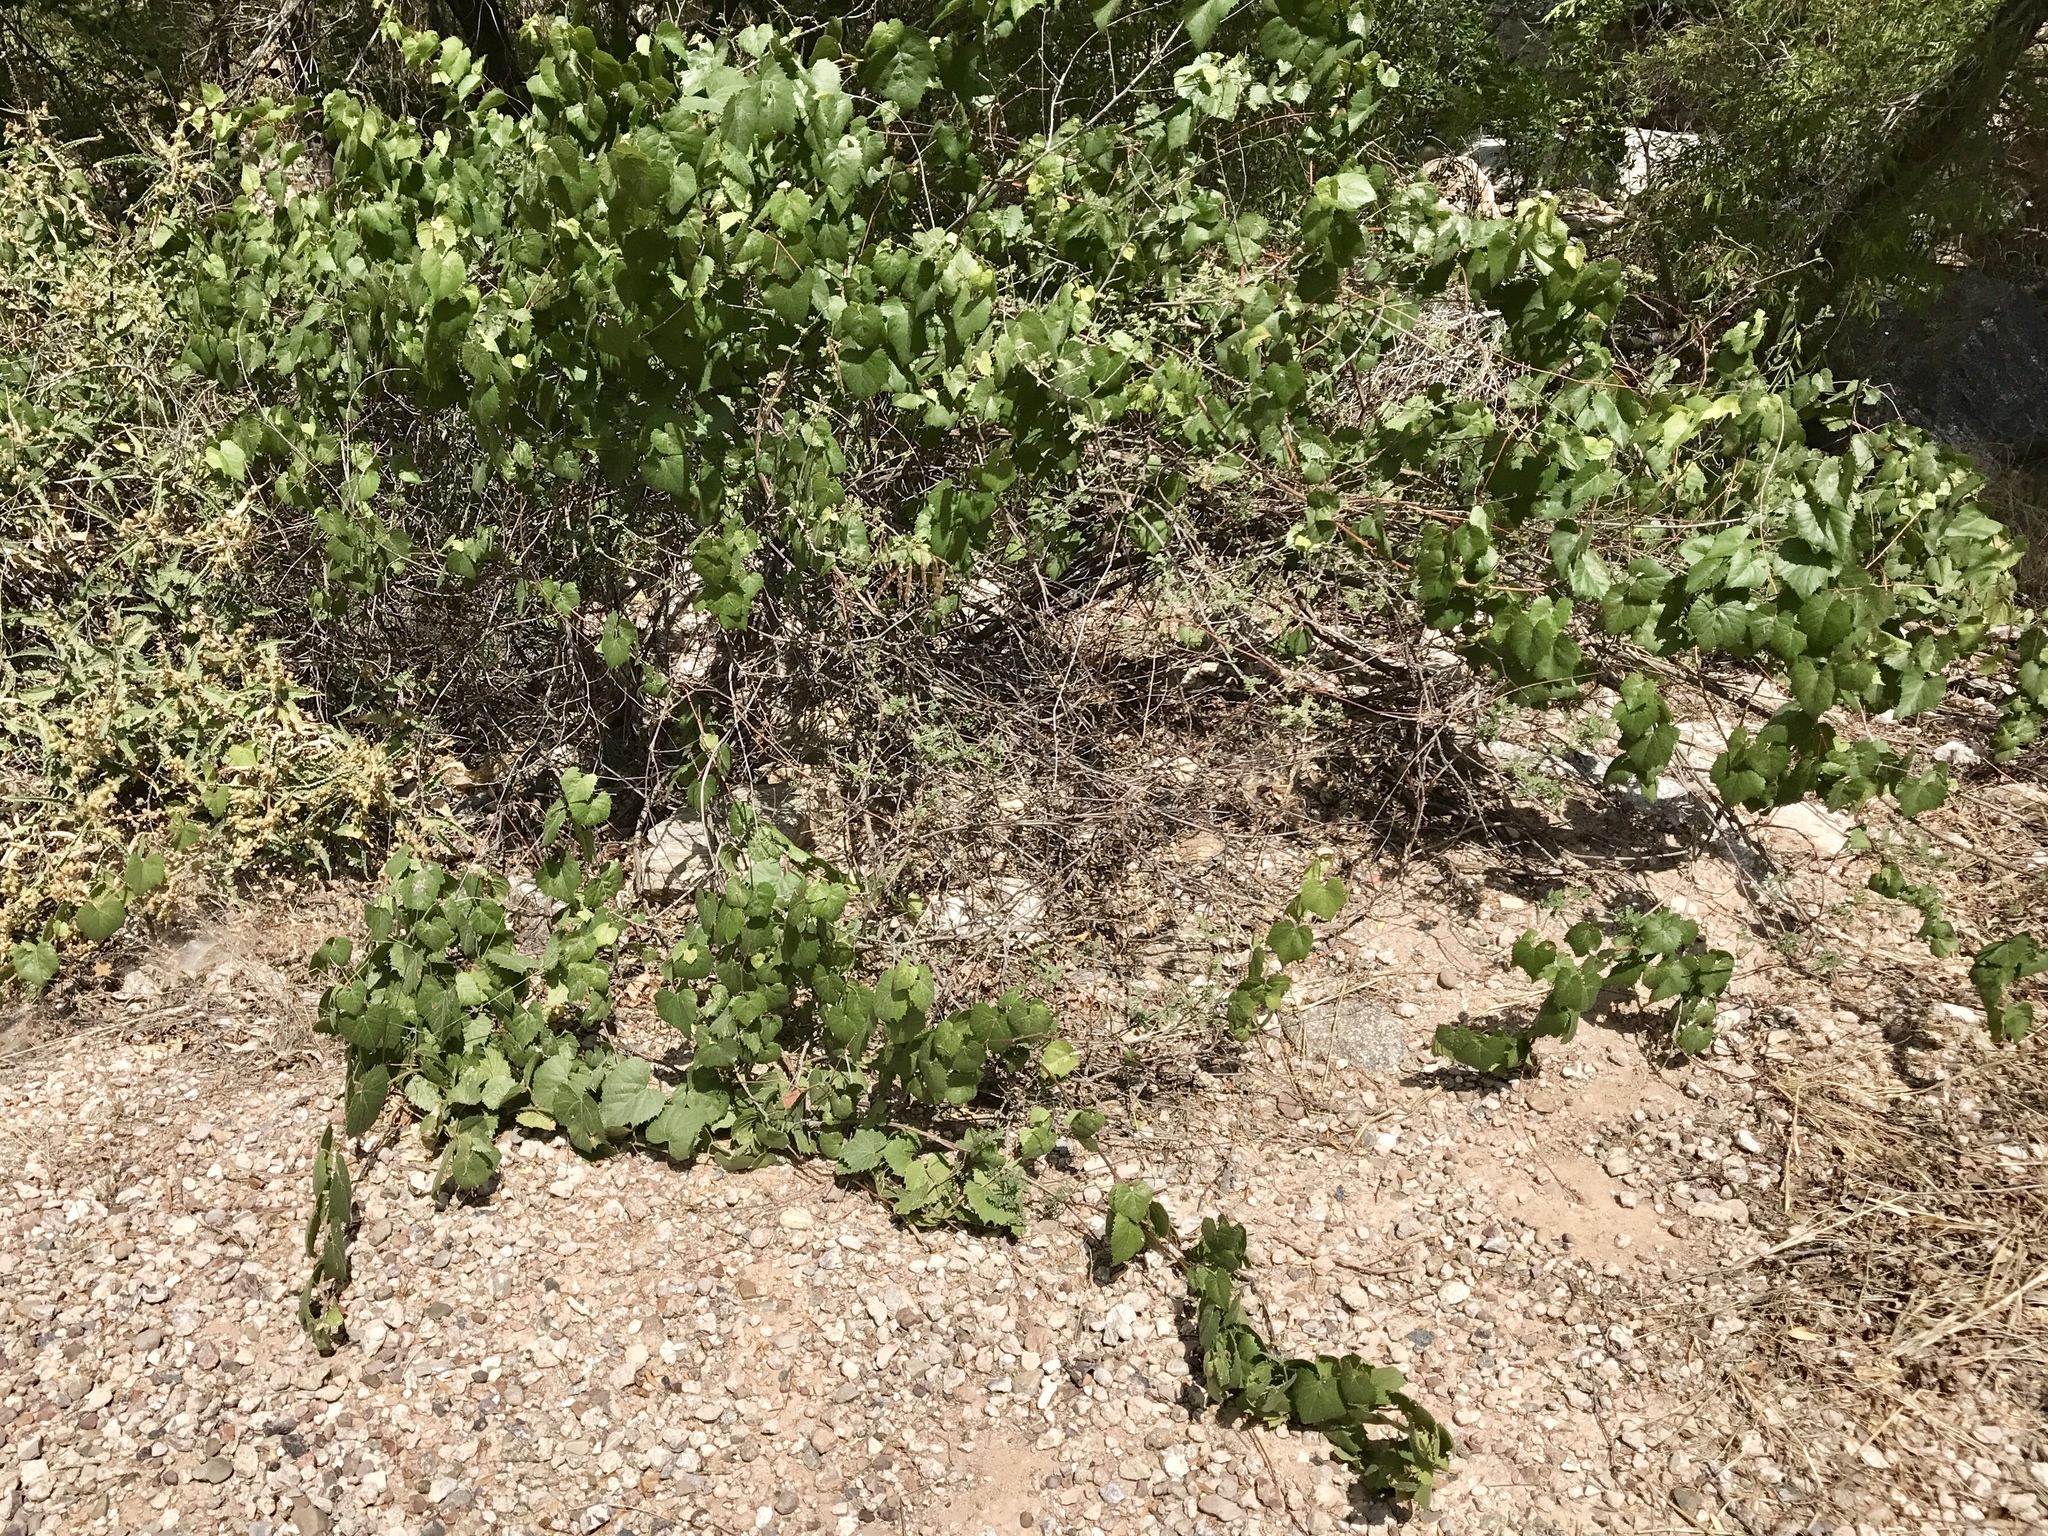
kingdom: Plantae
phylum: Tracheophyta
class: Magnoliopsida
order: Vitales
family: Vitaceae
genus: Vitis
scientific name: Vitis arizonica
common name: Canyon grape
